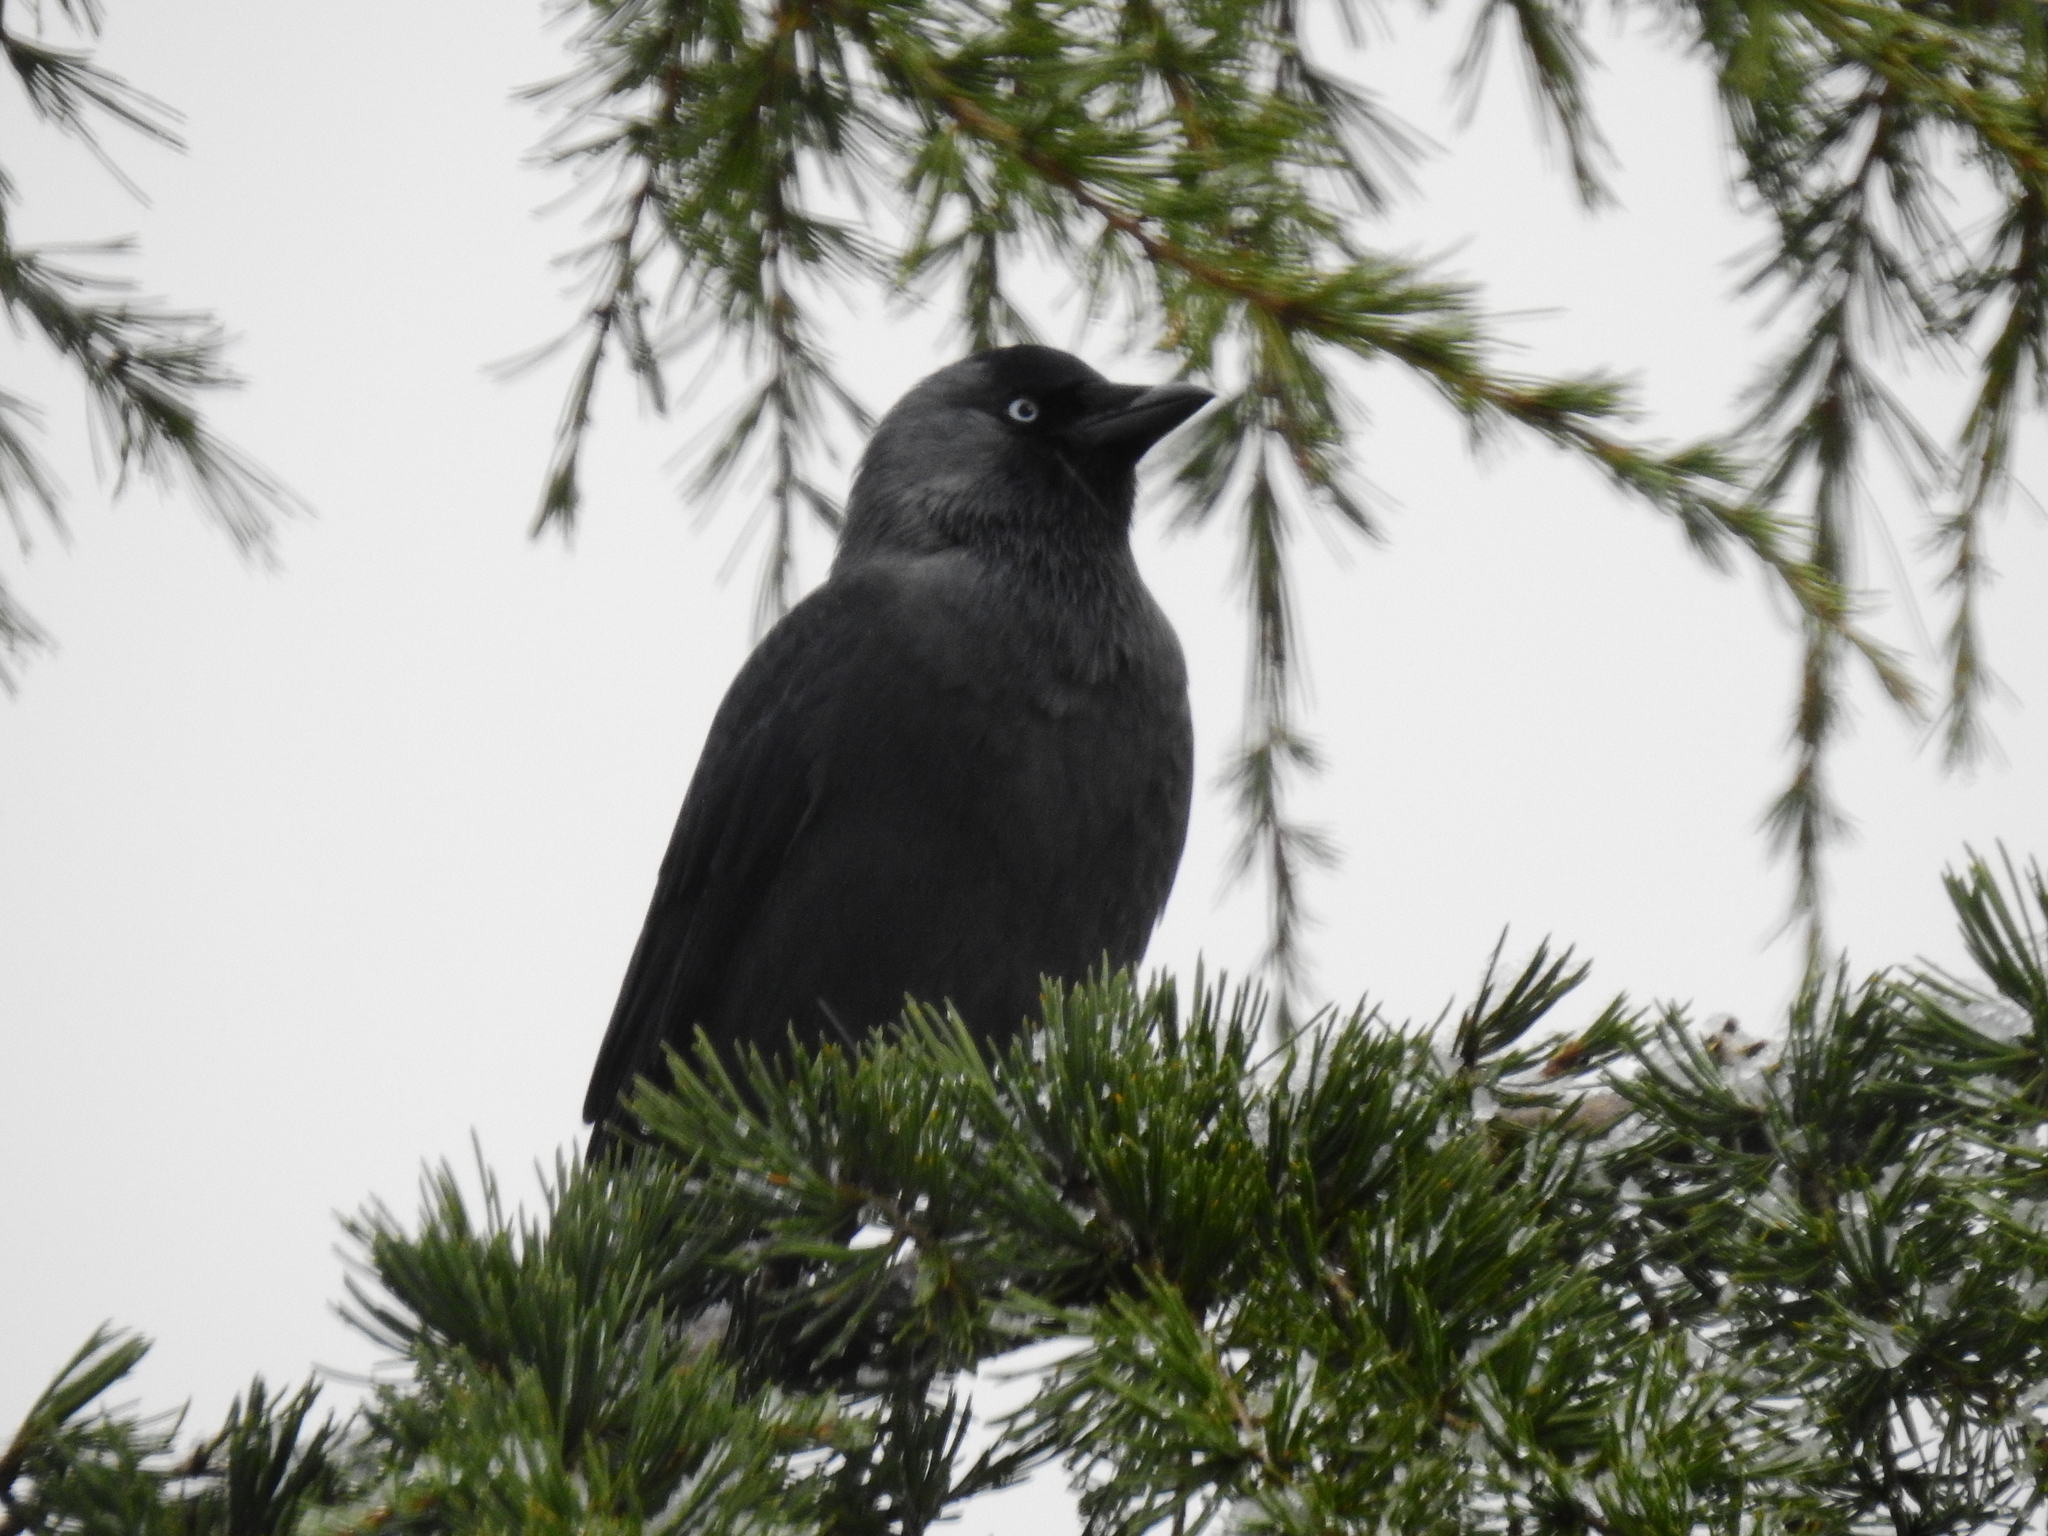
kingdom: Animalia
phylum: Chordata
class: Aves
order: Passeriformes
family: Corvidae
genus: Coloeus
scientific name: Coloeus monedula
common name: Western jackdaw
